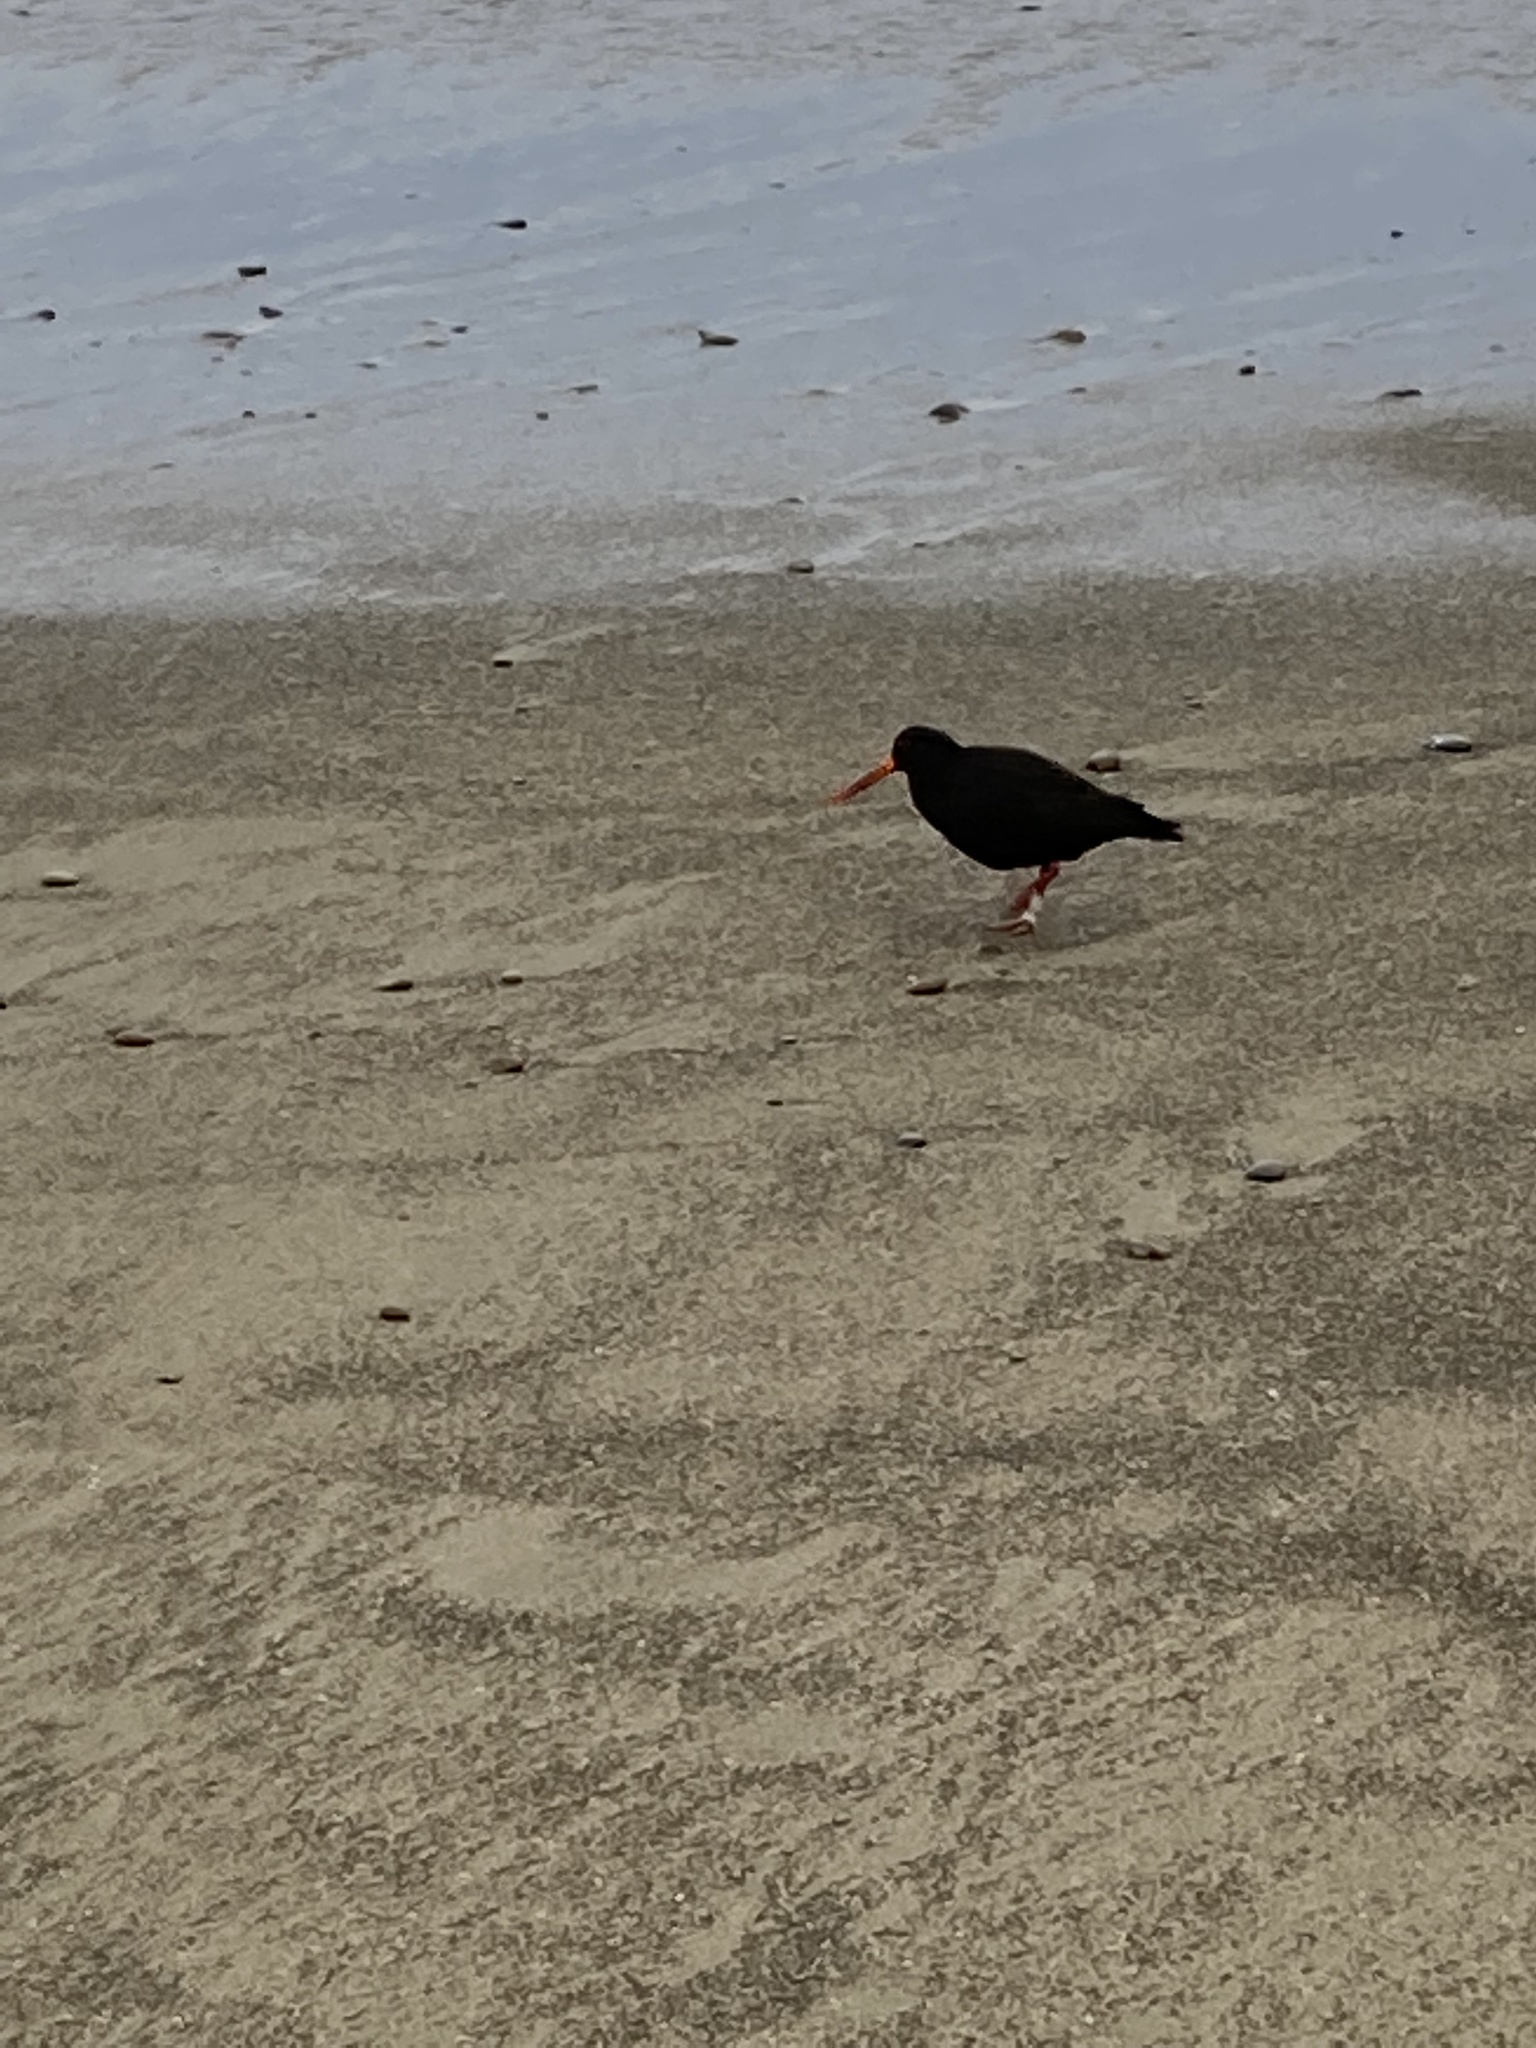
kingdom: Animalia
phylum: Chordata
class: Aves
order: Charadriiformes
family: Haematopodidae
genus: Haematopus
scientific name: Haematopus unicolor
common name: Variable oystercatcher
